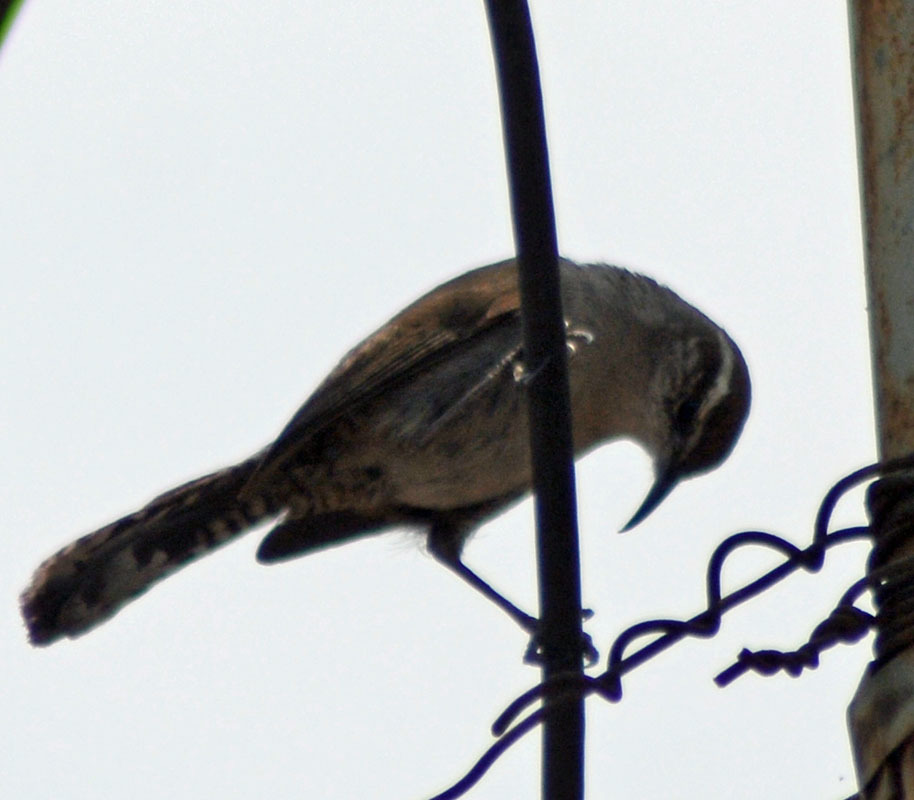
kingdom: Animalia
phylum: Chordata
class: Aves
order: Passeriformes
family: Troglodytidae
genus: Thryomanes
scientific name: Thryomanes bewickii
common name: Bewick's wren
